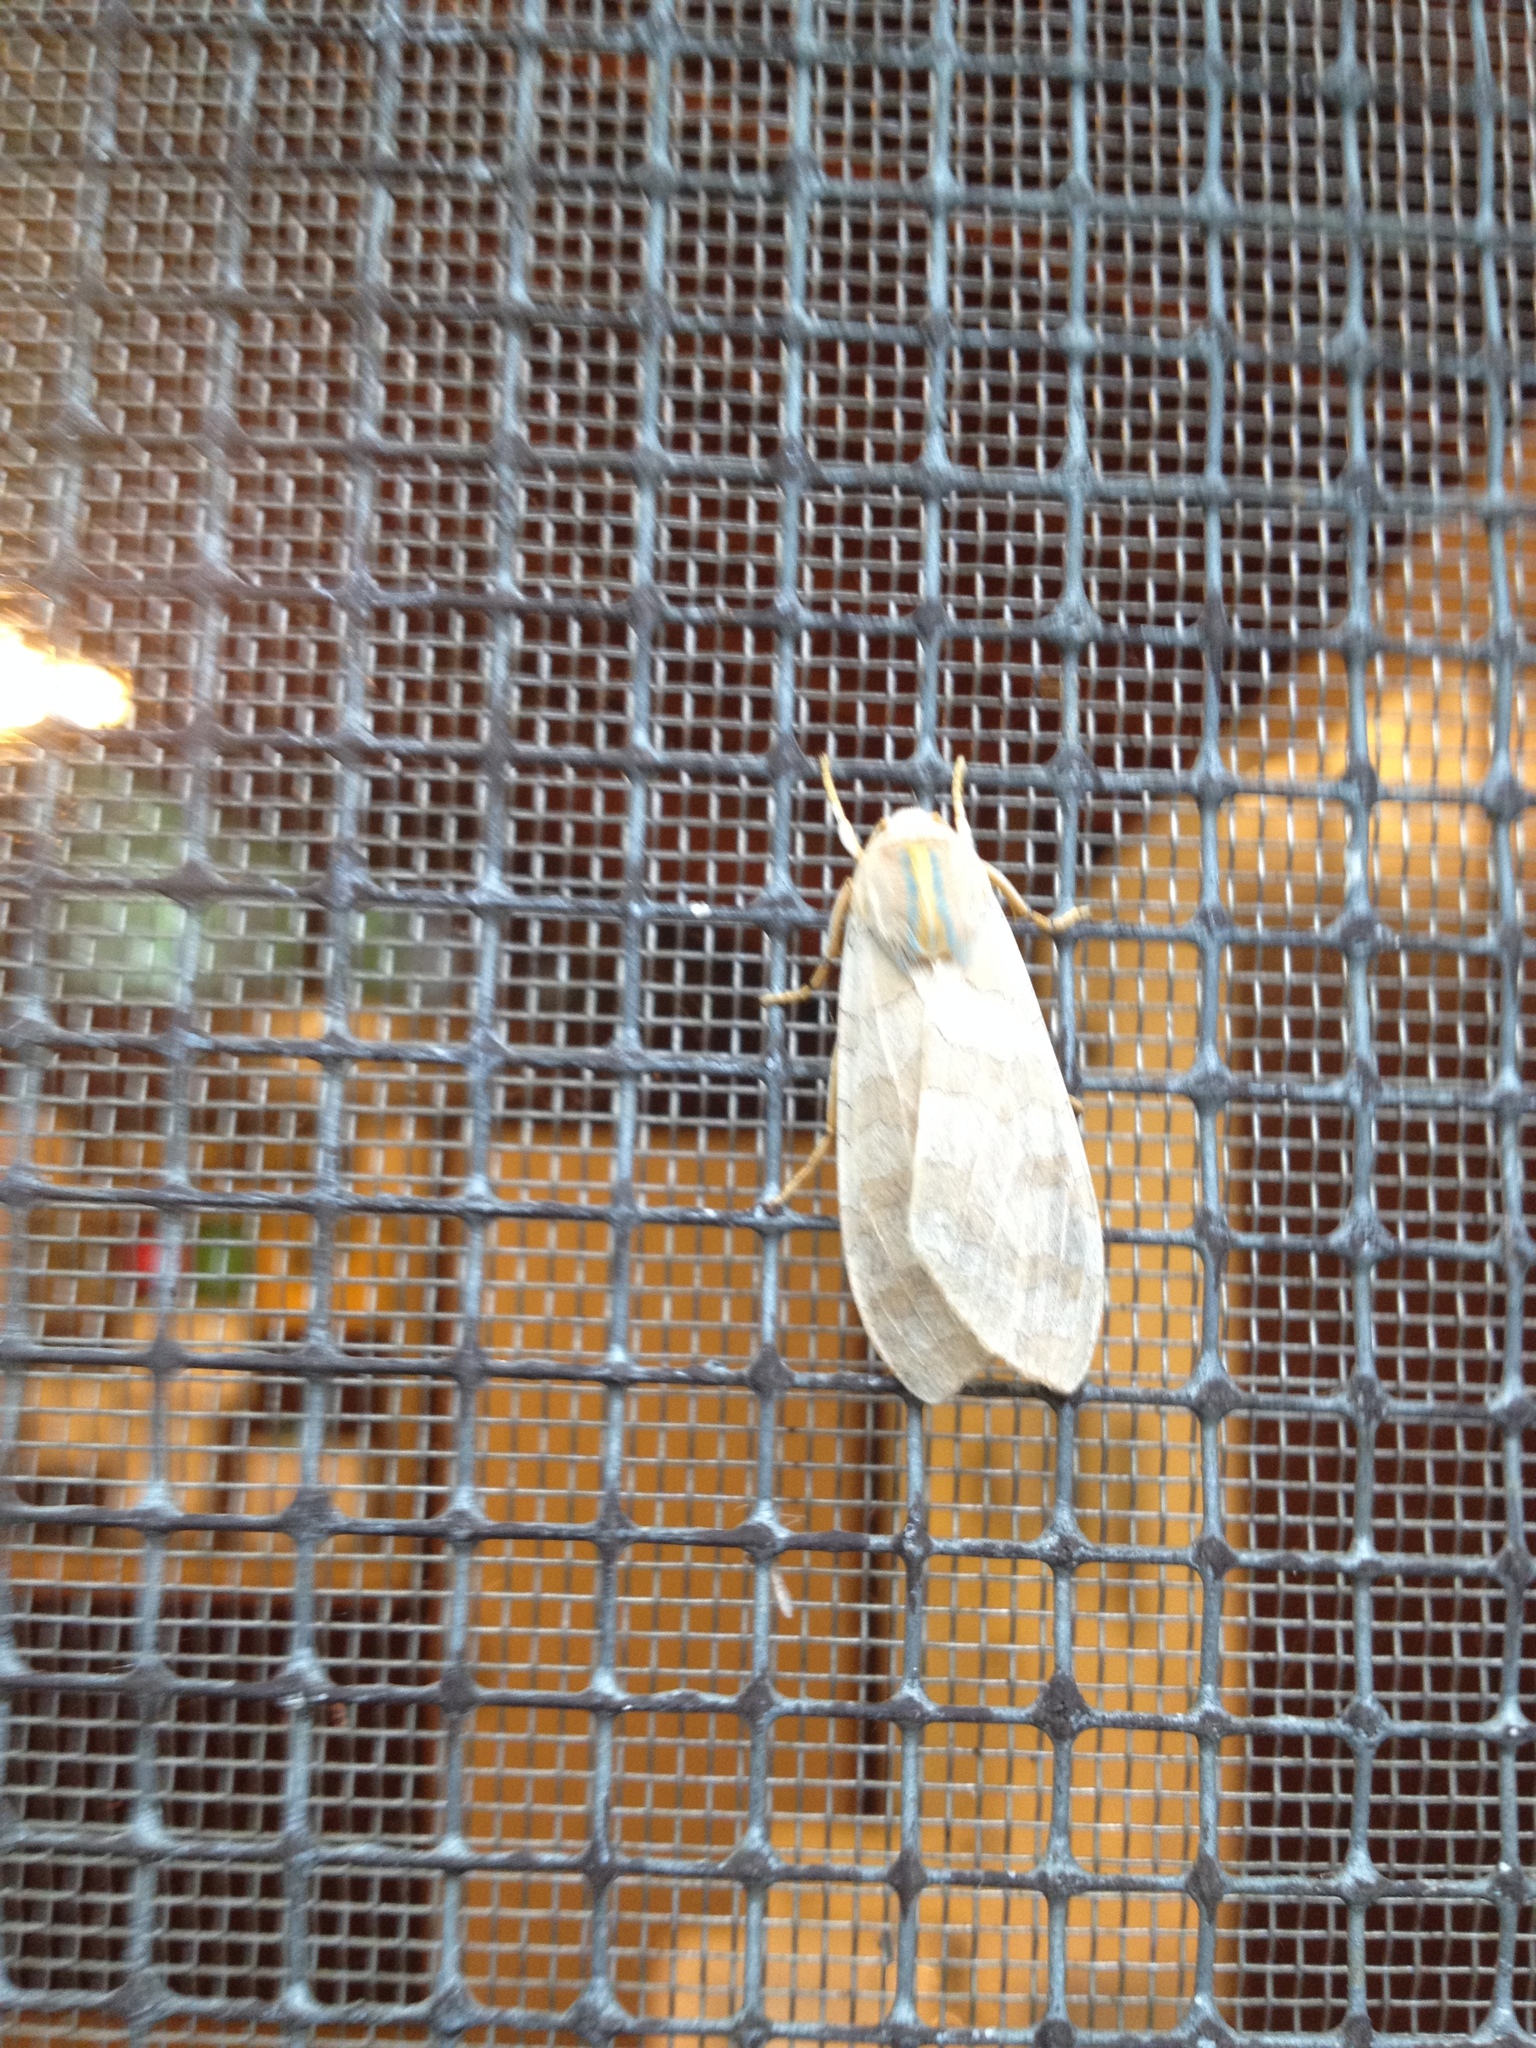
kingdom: Animalia
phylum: Arthropoda
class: Insecta
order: Lepidoptera
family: Erebidae
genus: Halysidota
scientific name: Halysidota tessellaris
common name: Banded tussock moth
